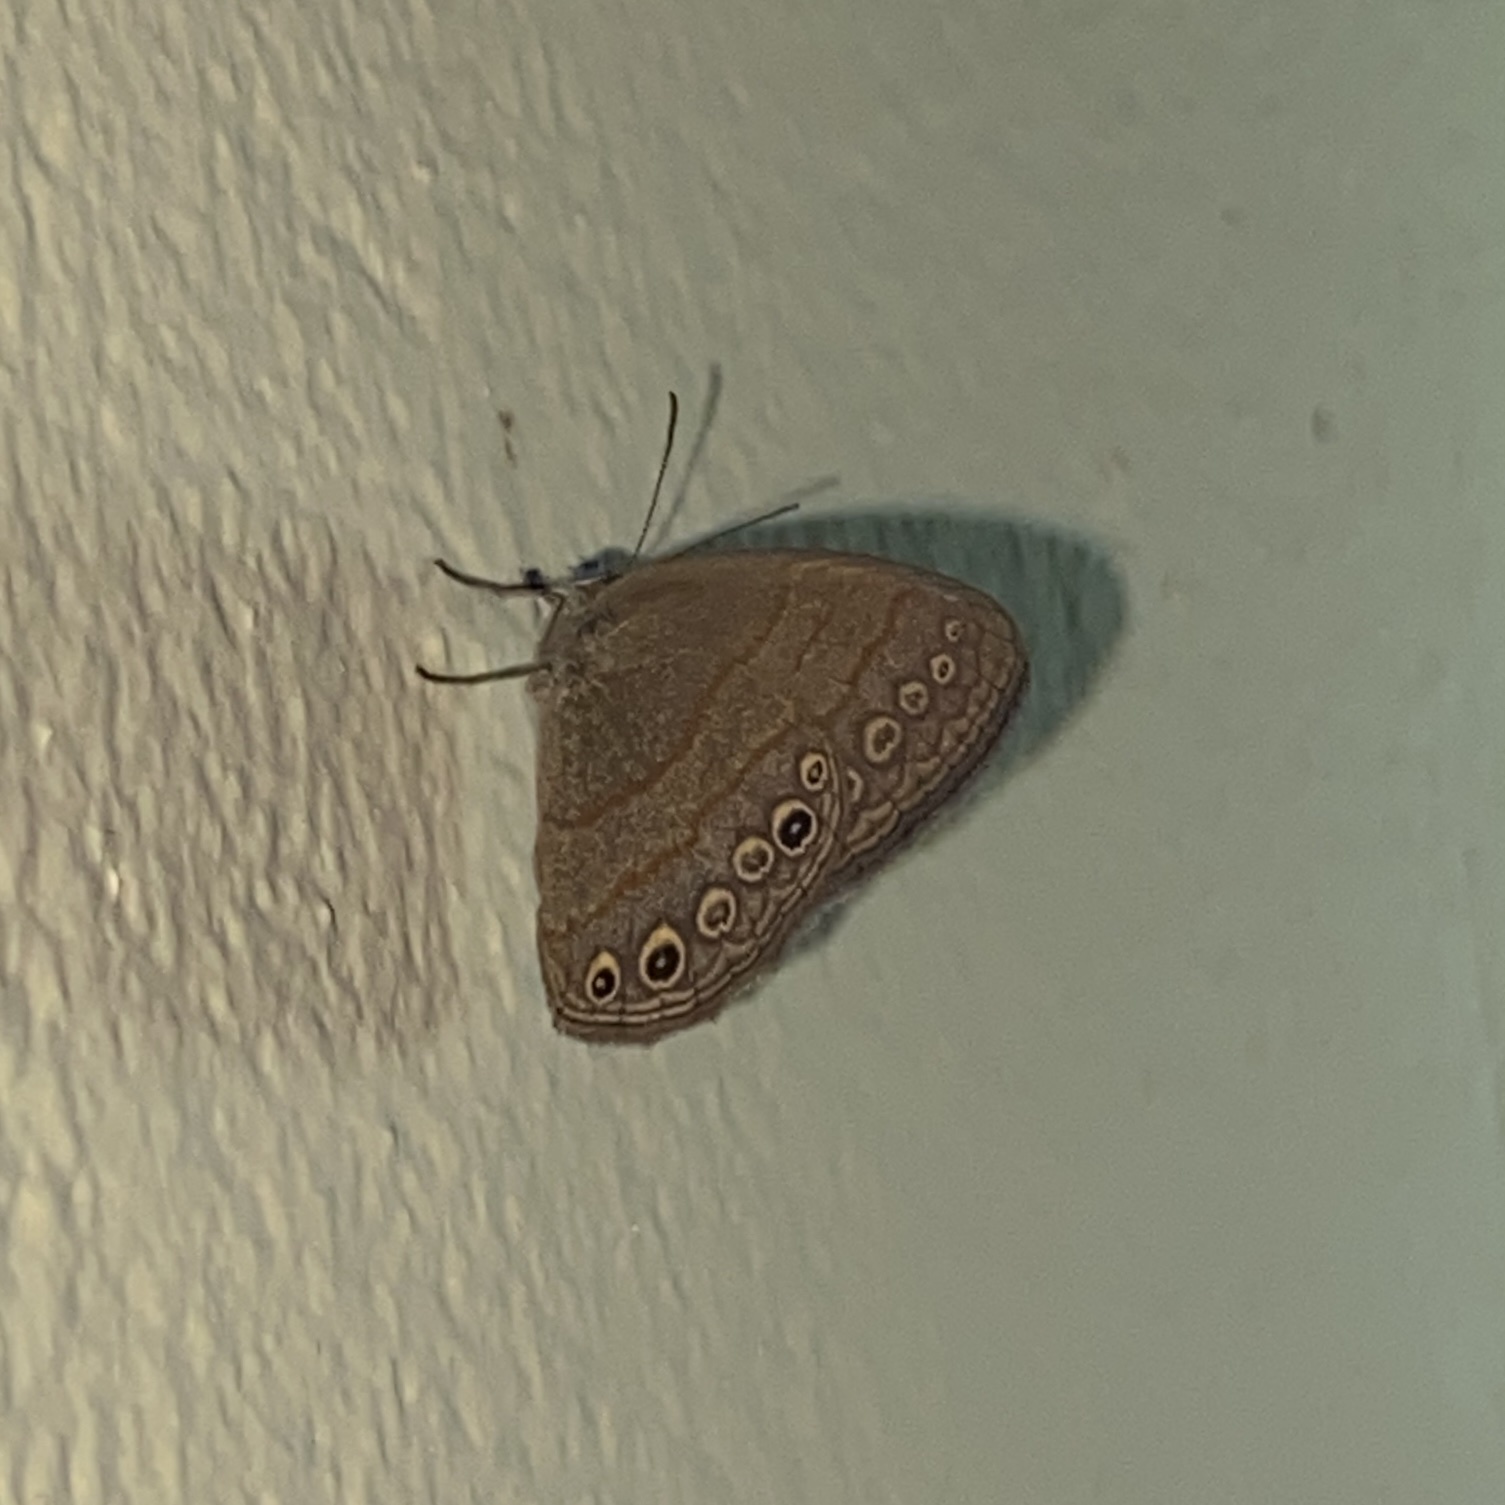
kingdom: Animalia
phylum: Arthropoda
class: Insecta
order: Lepidoptera
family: Nymphalidae
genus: Hermeuptychia
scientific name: Hermeuptychia canthe
